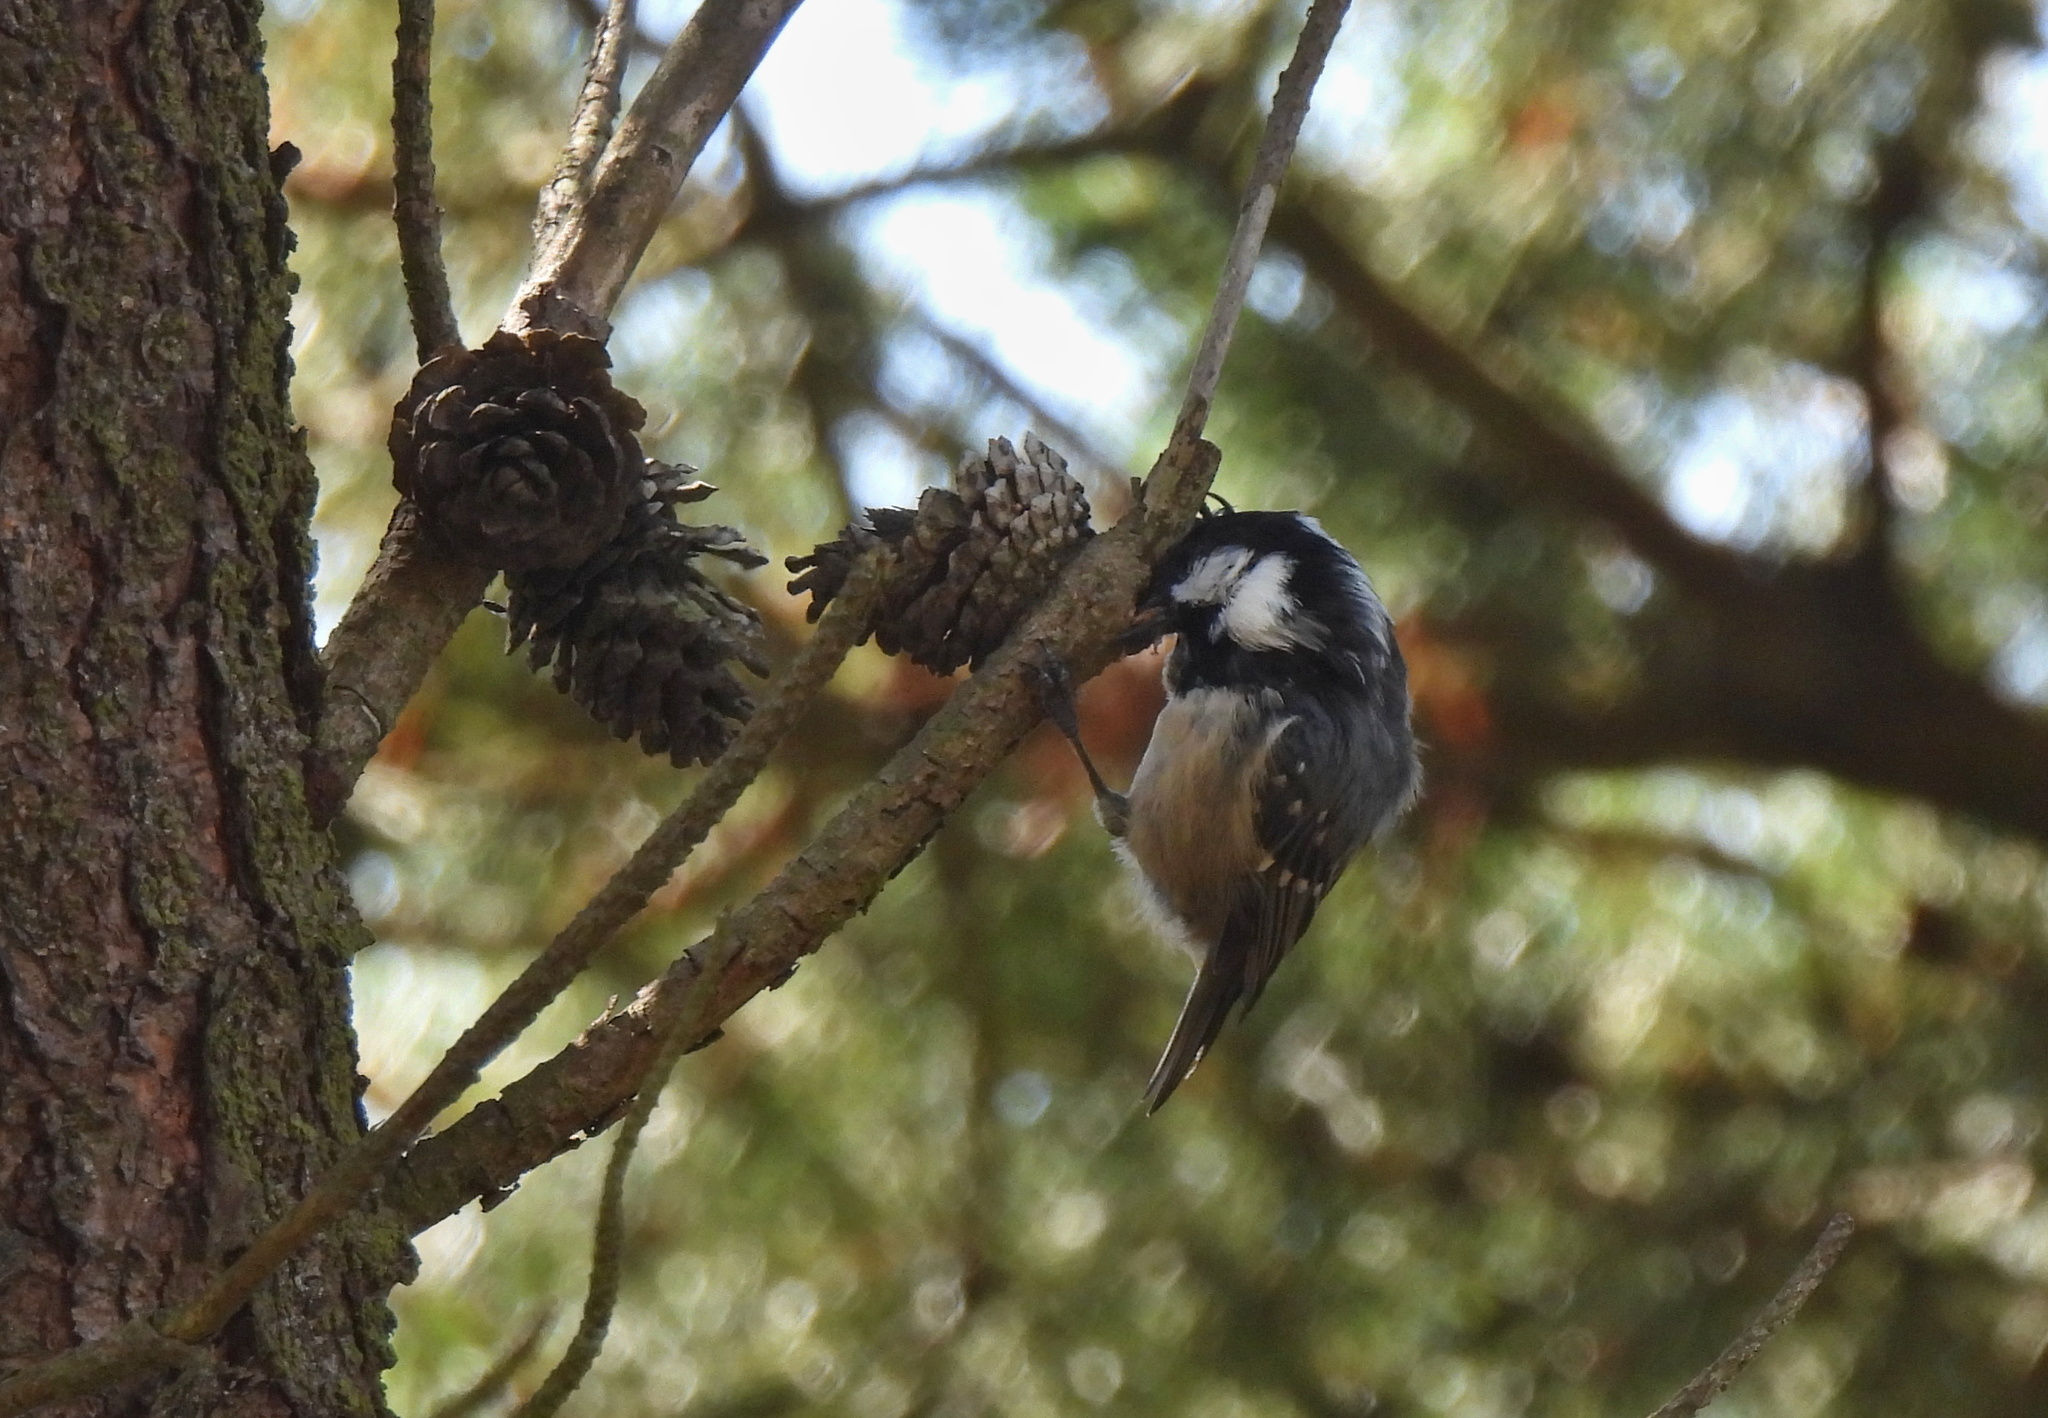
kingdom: Animalia
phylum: Chordata
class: Aves
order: Passeriformes
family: Paridae
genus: Periparus
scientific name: Periparus ater
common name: Coal tit
